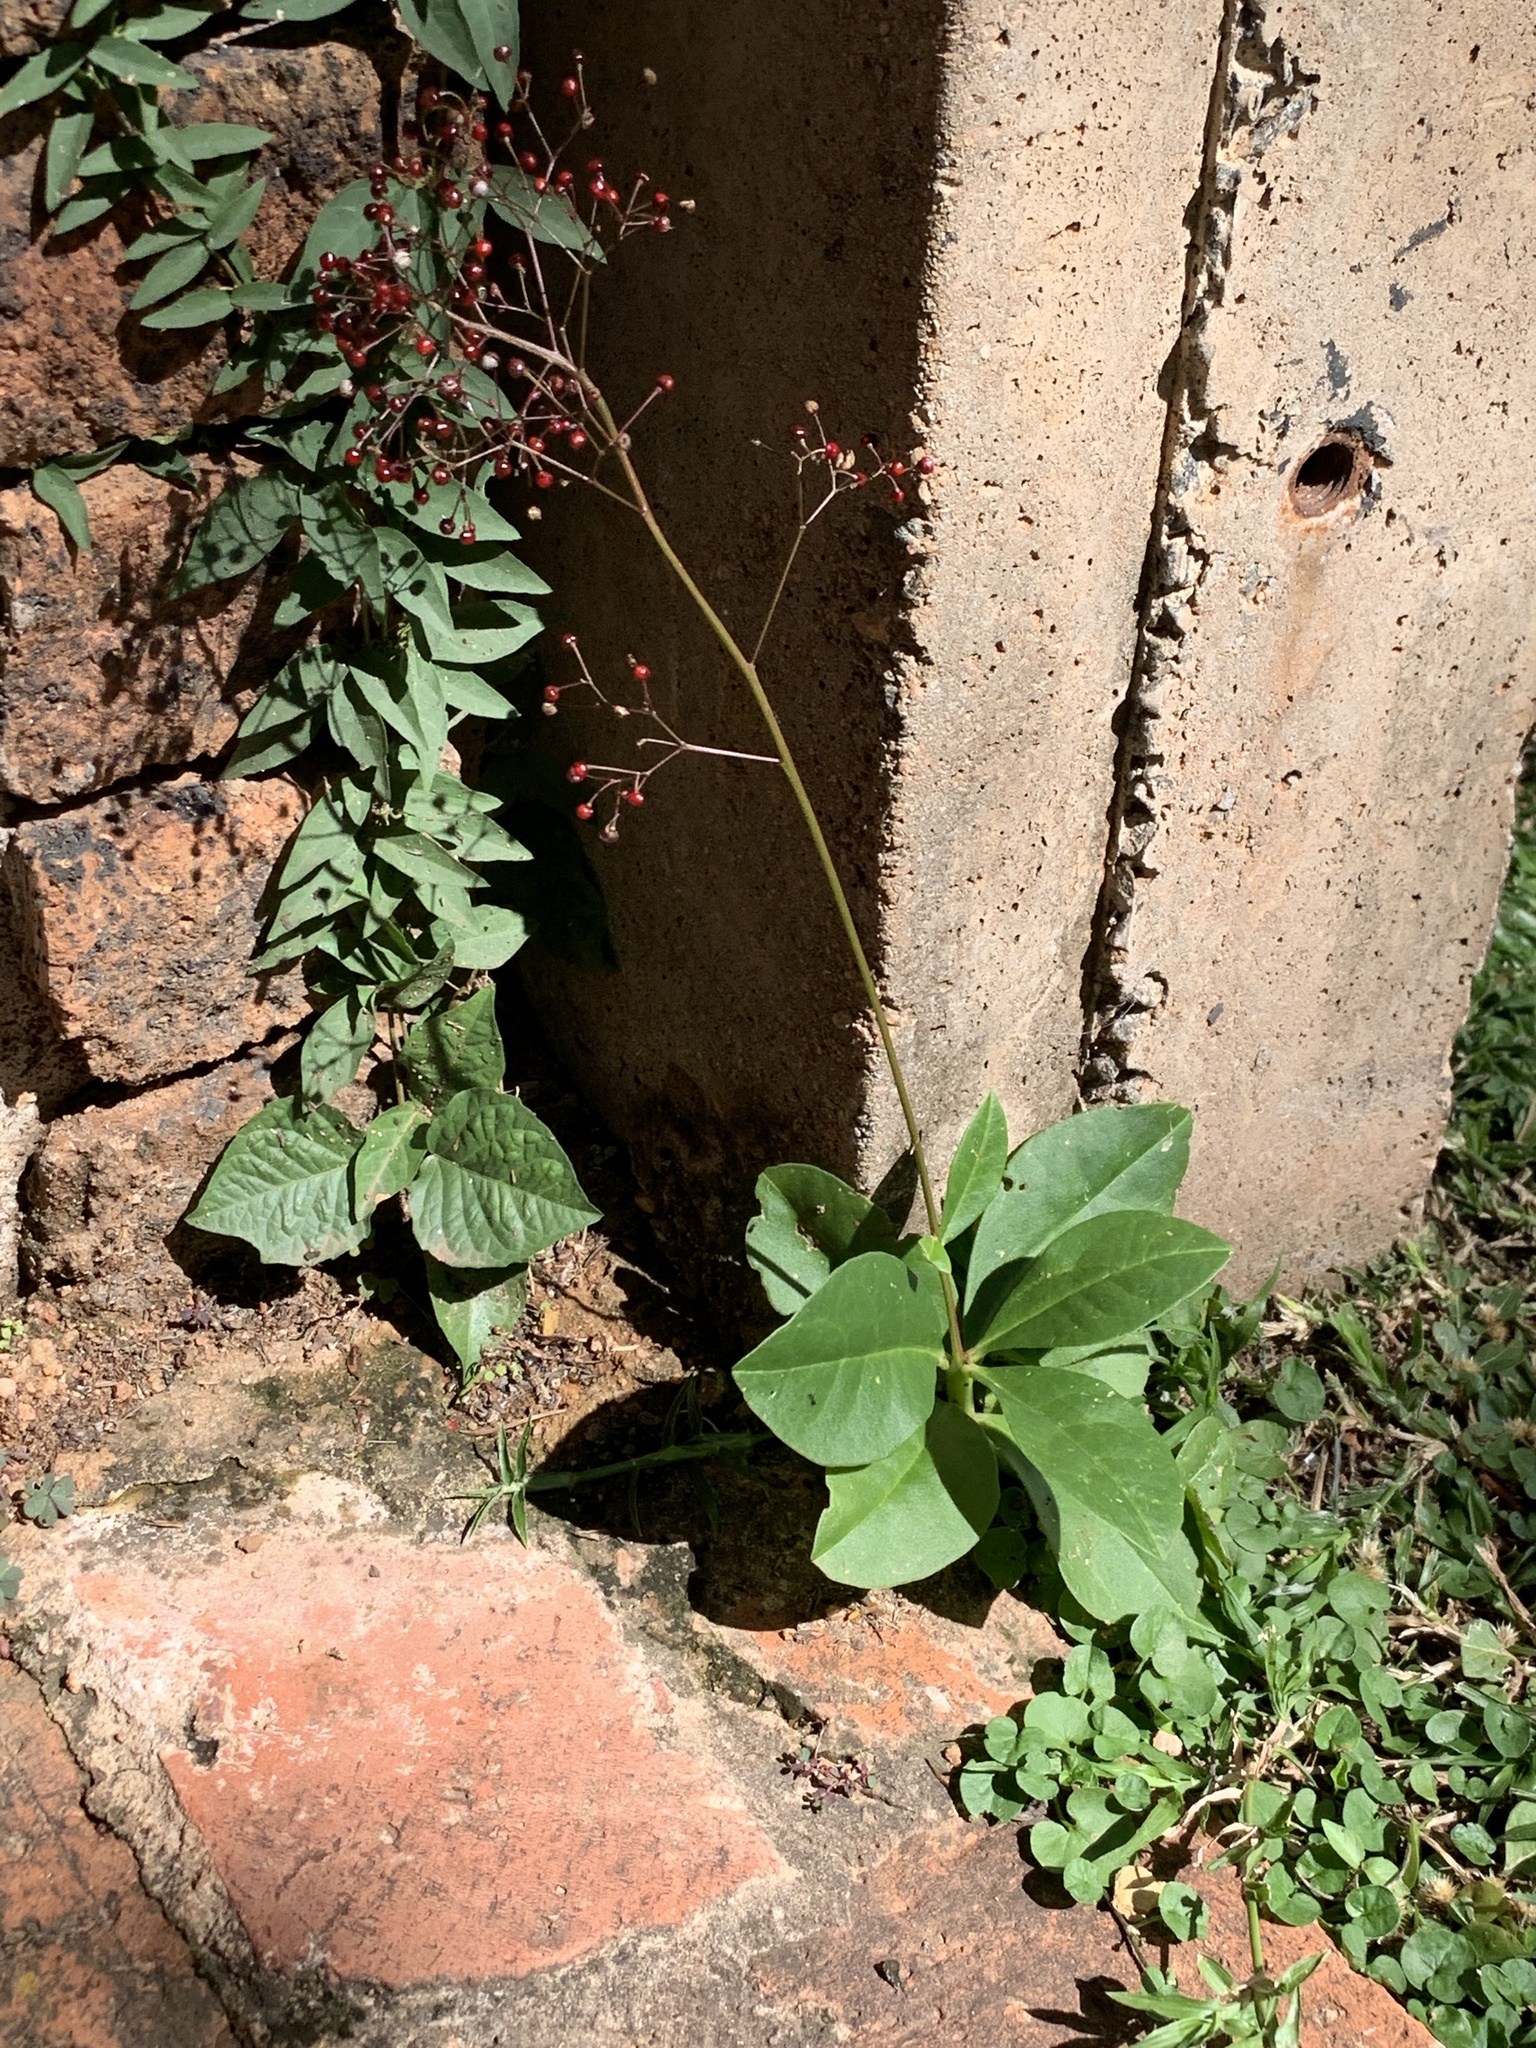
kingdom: Plantae
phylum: Tracheophyta
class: Magnoliopsida
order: Caryophyllales
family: Talinaceae
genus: Talinum
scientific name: Talinum paniculatum
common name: Jewels of opar
